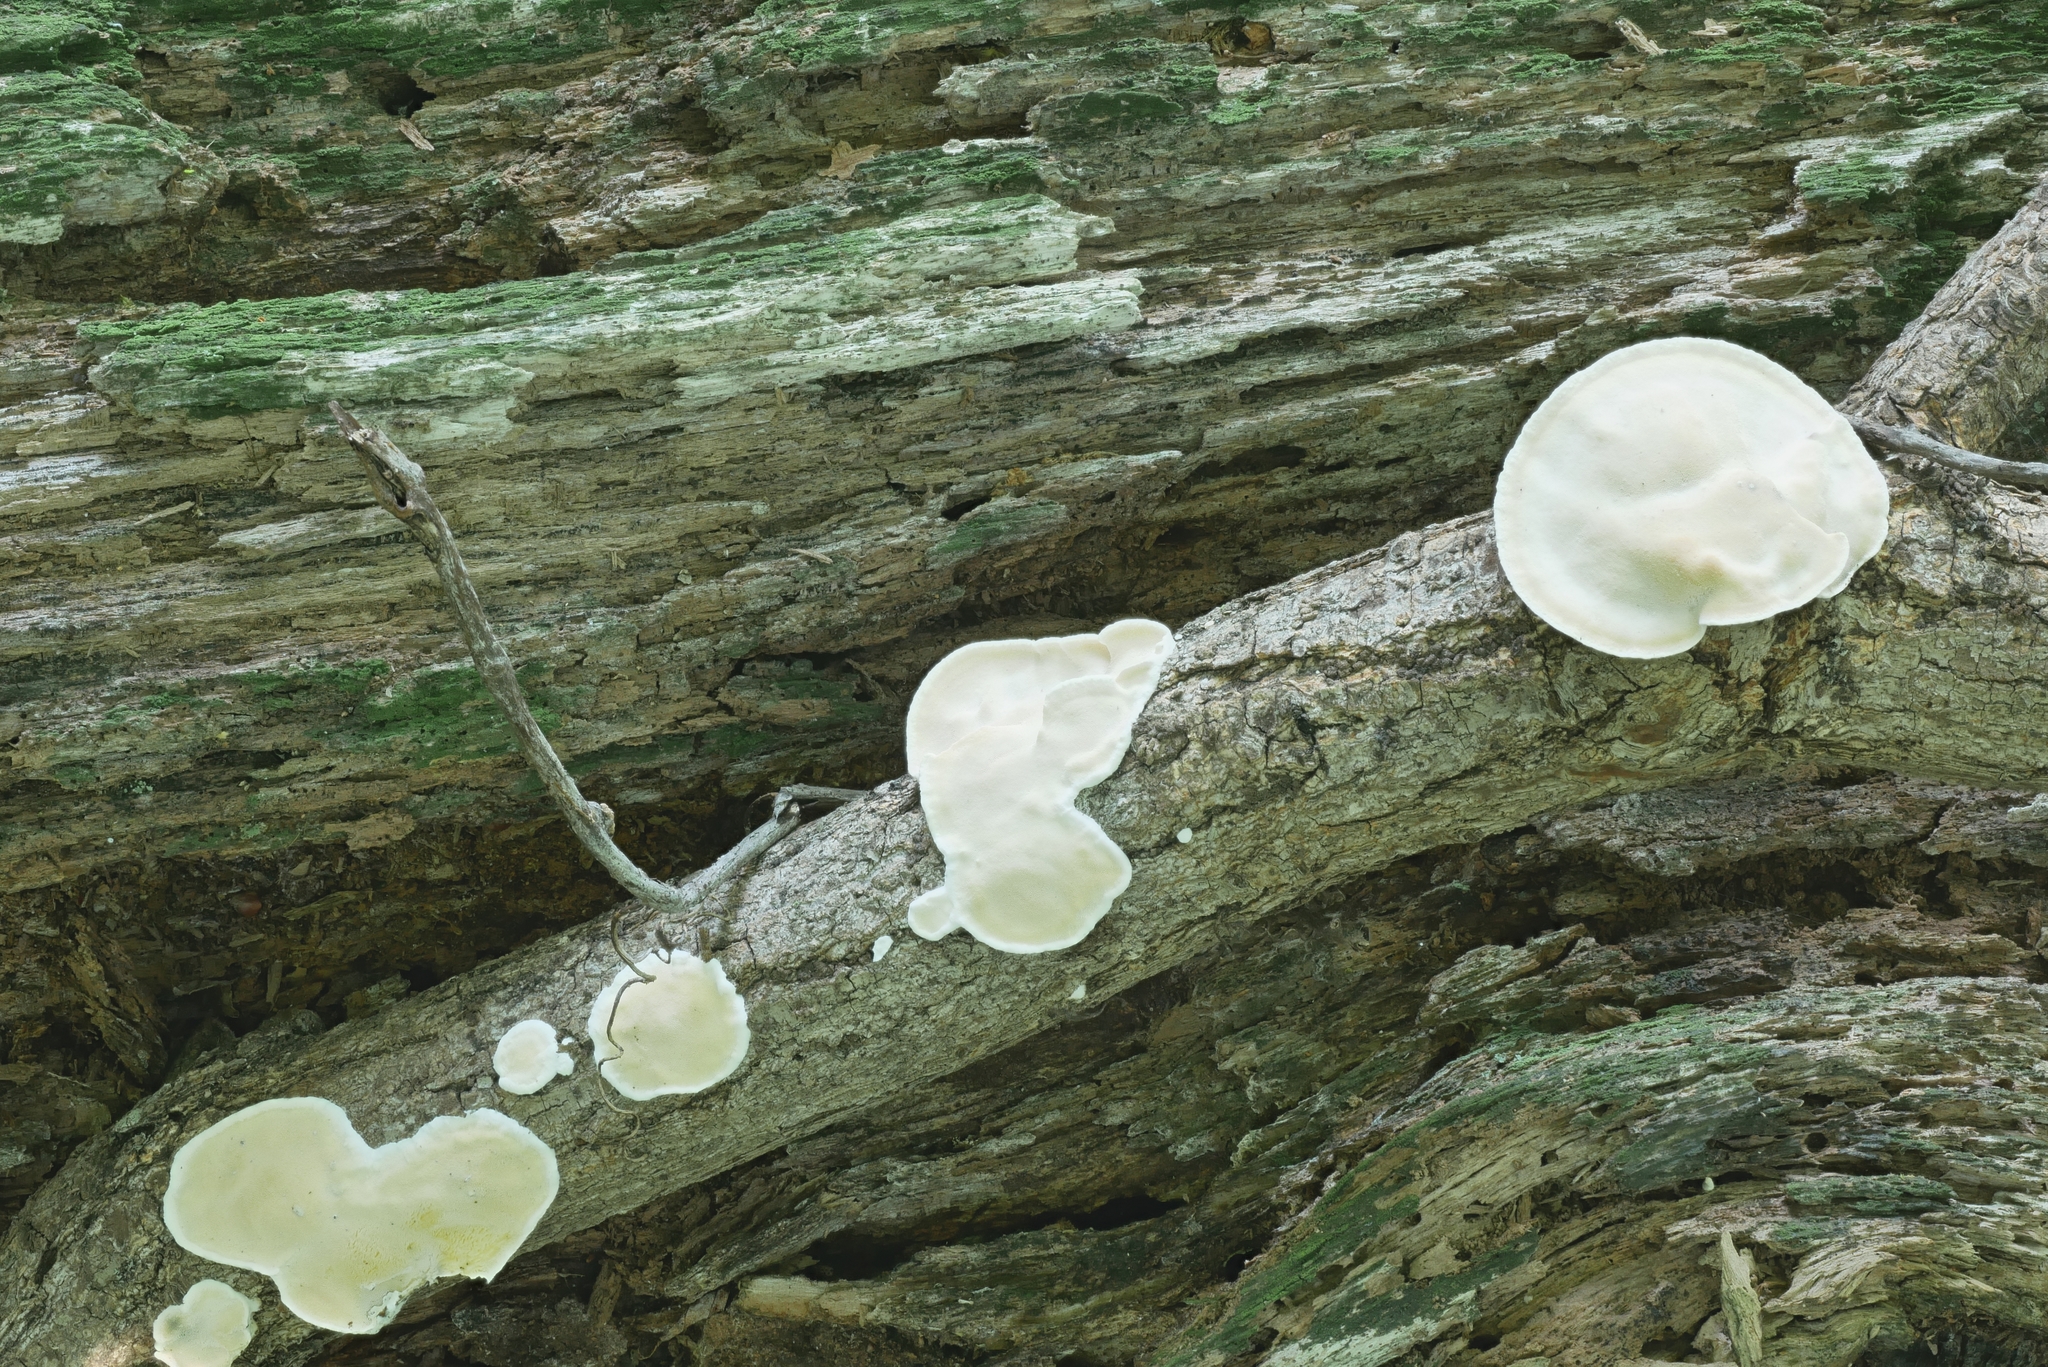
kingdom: Fungi
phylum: Basidiomycota
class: Agaricomycetes
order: Polyporales
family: Incrustoporiaceae
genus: Skeletocutis
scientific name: Skeletocutis semipileata
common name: Hazel bracket
